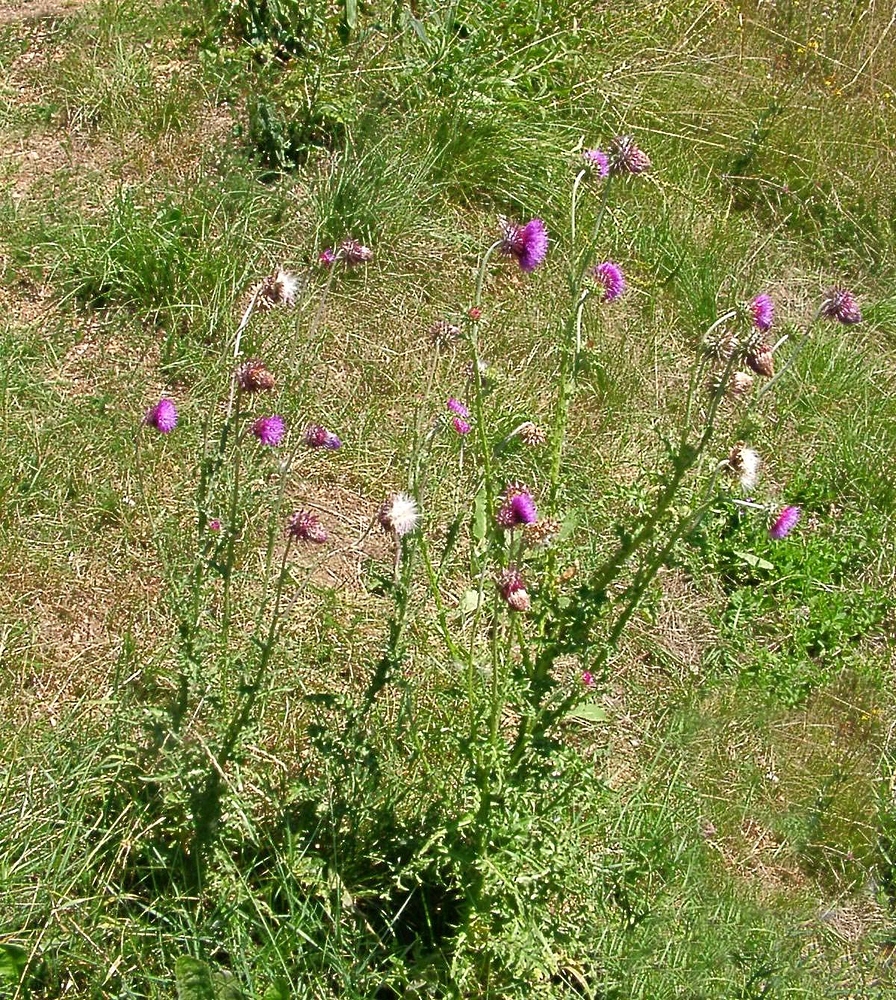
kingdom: Plantae
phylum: Tracheophyta
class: Magnoliopsida
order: Asterales
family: Asteraceae
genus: Carduus
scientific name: Carduus nutans
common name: Musk thistle
